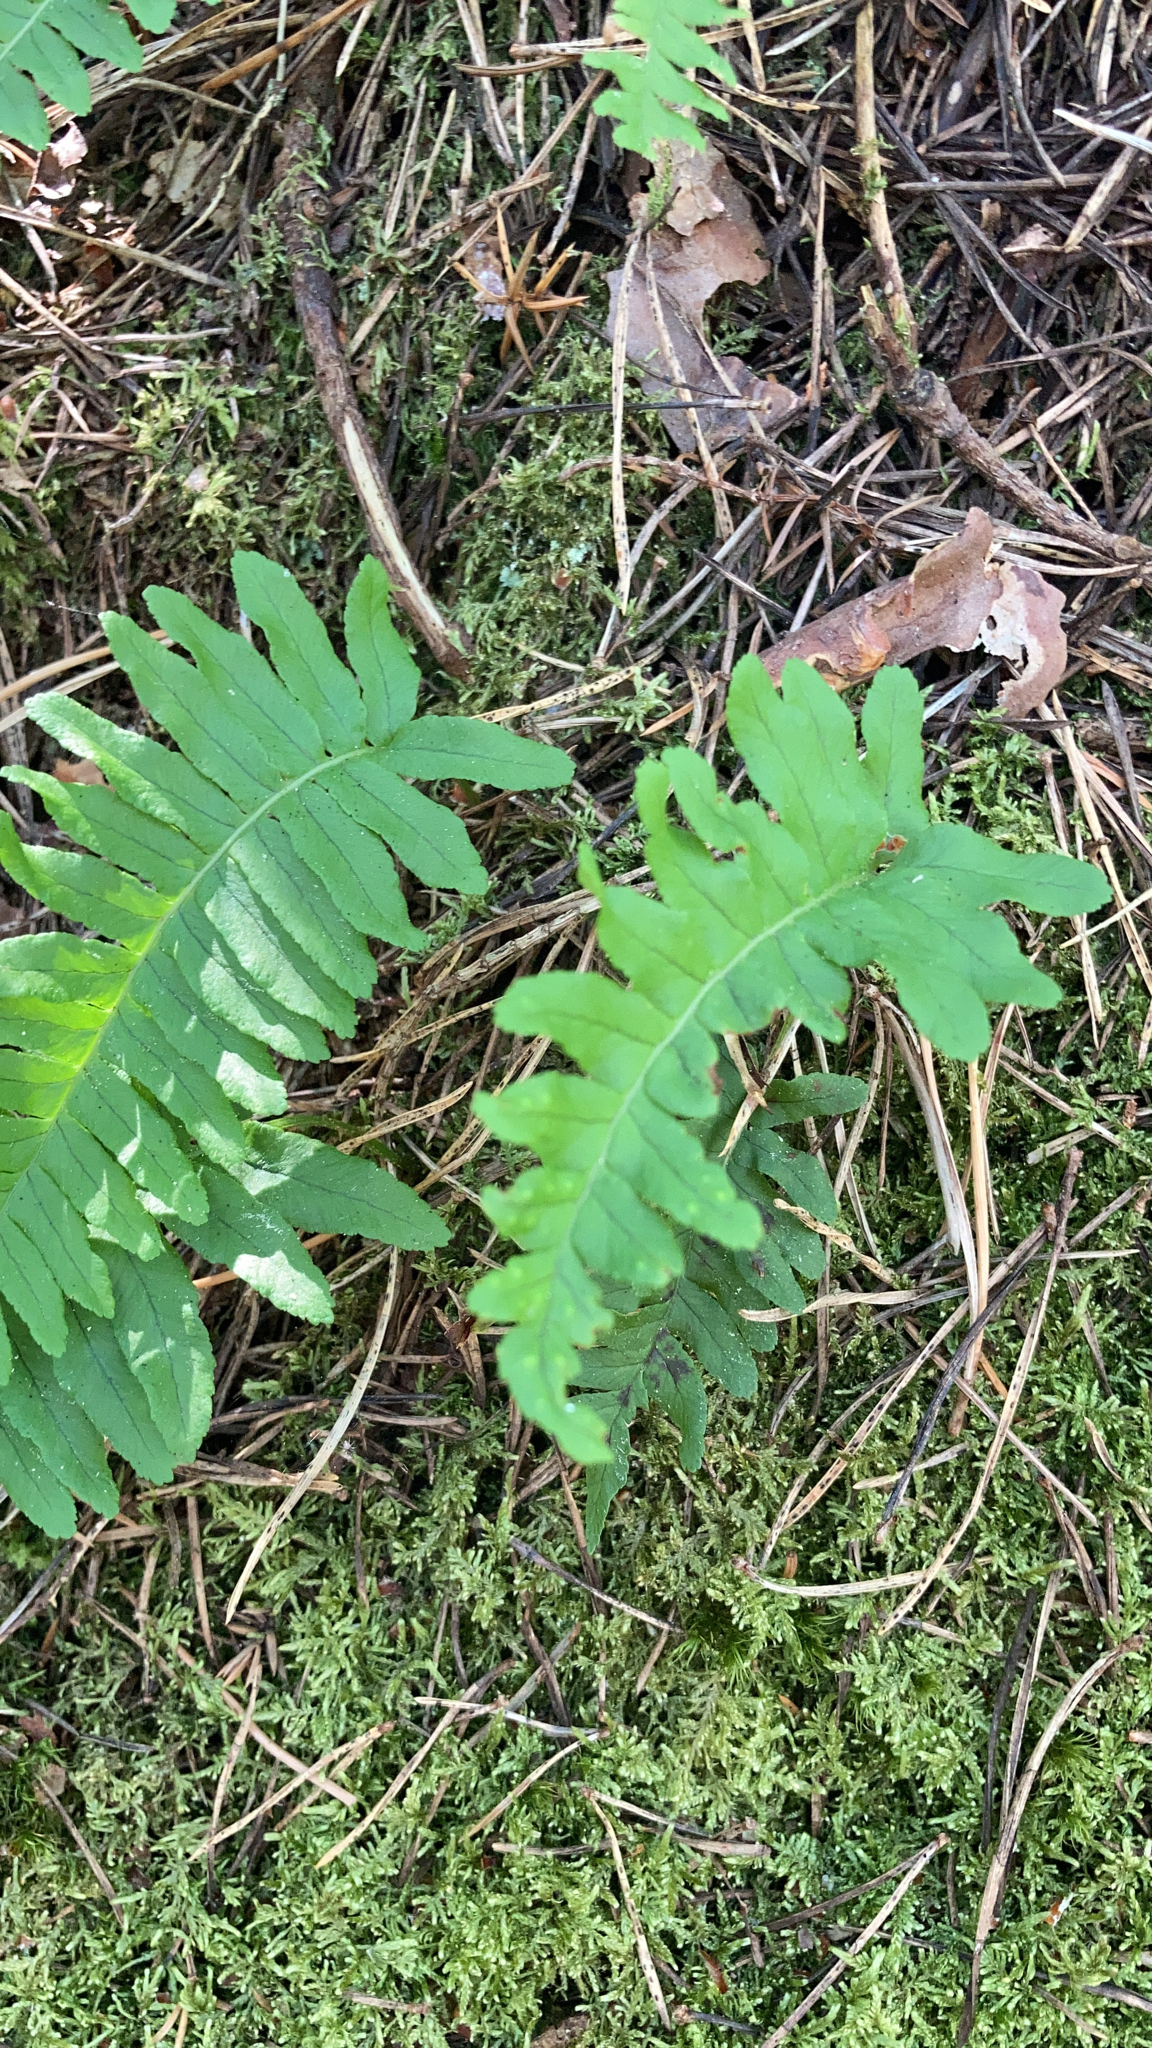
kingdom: Plantae
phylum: Tracheophyta
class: Polypodiopsida
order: Polypodiales
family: Polypodiaceae
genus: Polypodium
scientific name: Polypodium vulgare
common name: Common polypody
